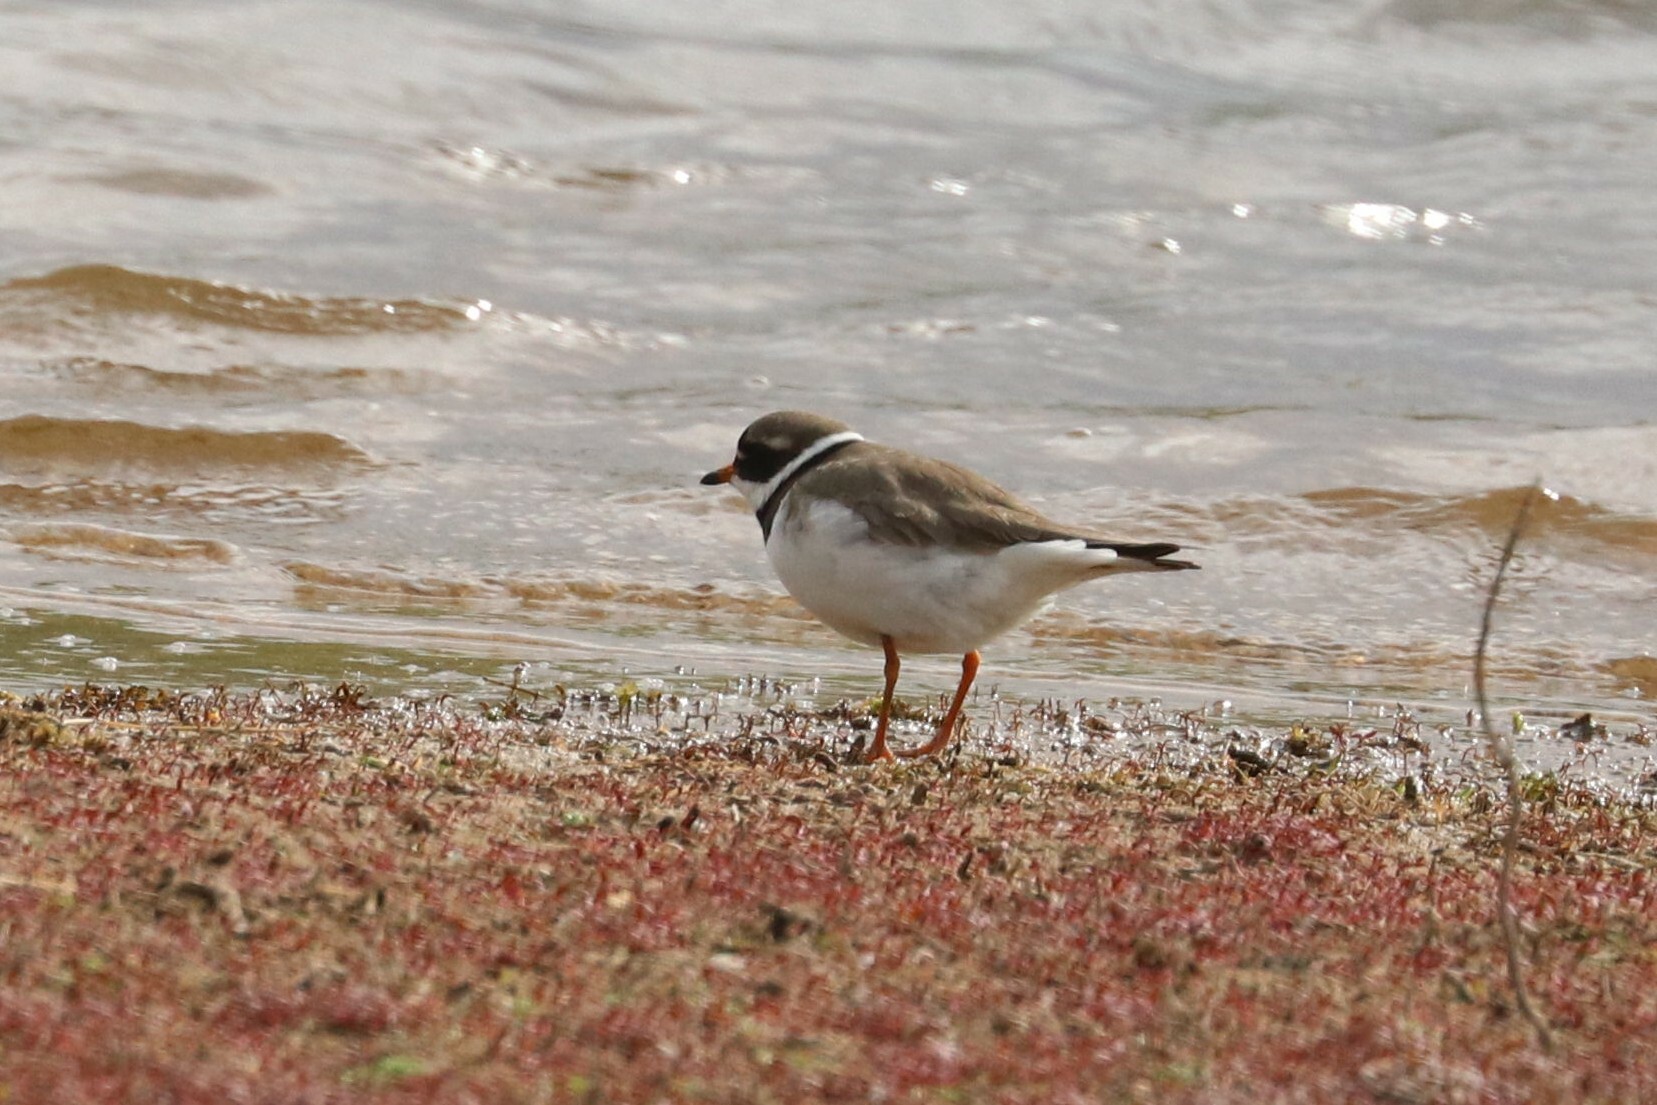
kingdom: Animalia
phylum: Chordata
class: Aves
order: Charadriiformes
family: Charadriidae
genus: Charadrius
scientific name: Charadrius hiaticula
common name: Common ringed plover
